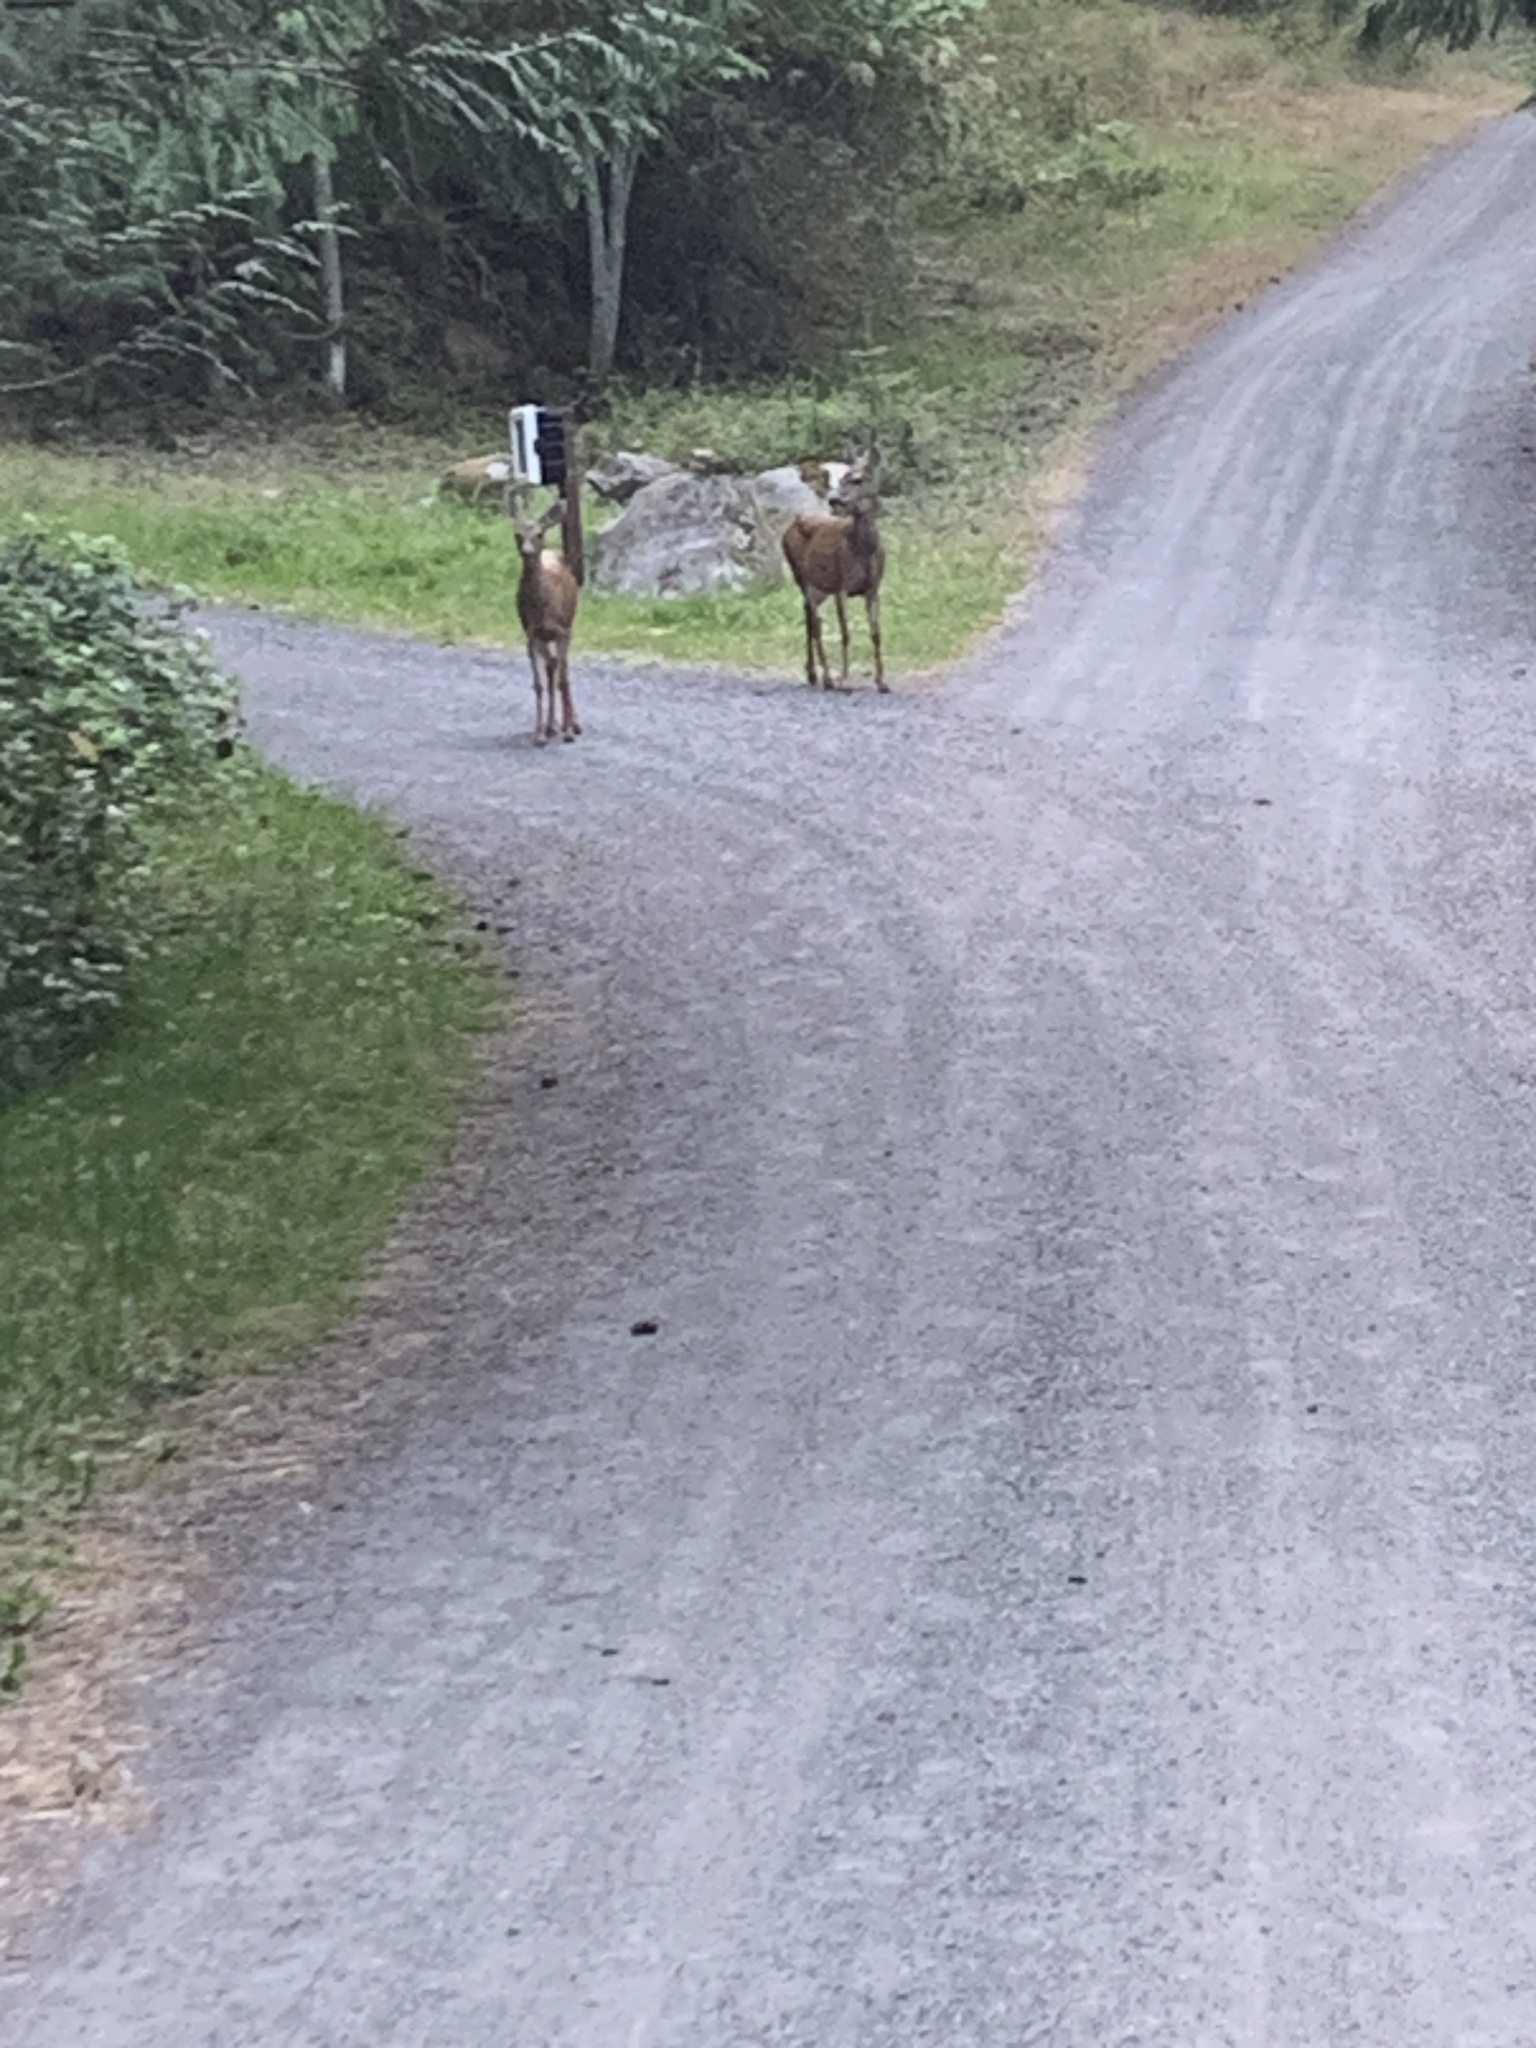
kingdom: Animalia
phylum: Chordata
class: Mammalia
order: Artiodactyla
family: Cervidae
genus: Odocoileus
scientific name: Odocoileus hemionus
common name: Mule deer
